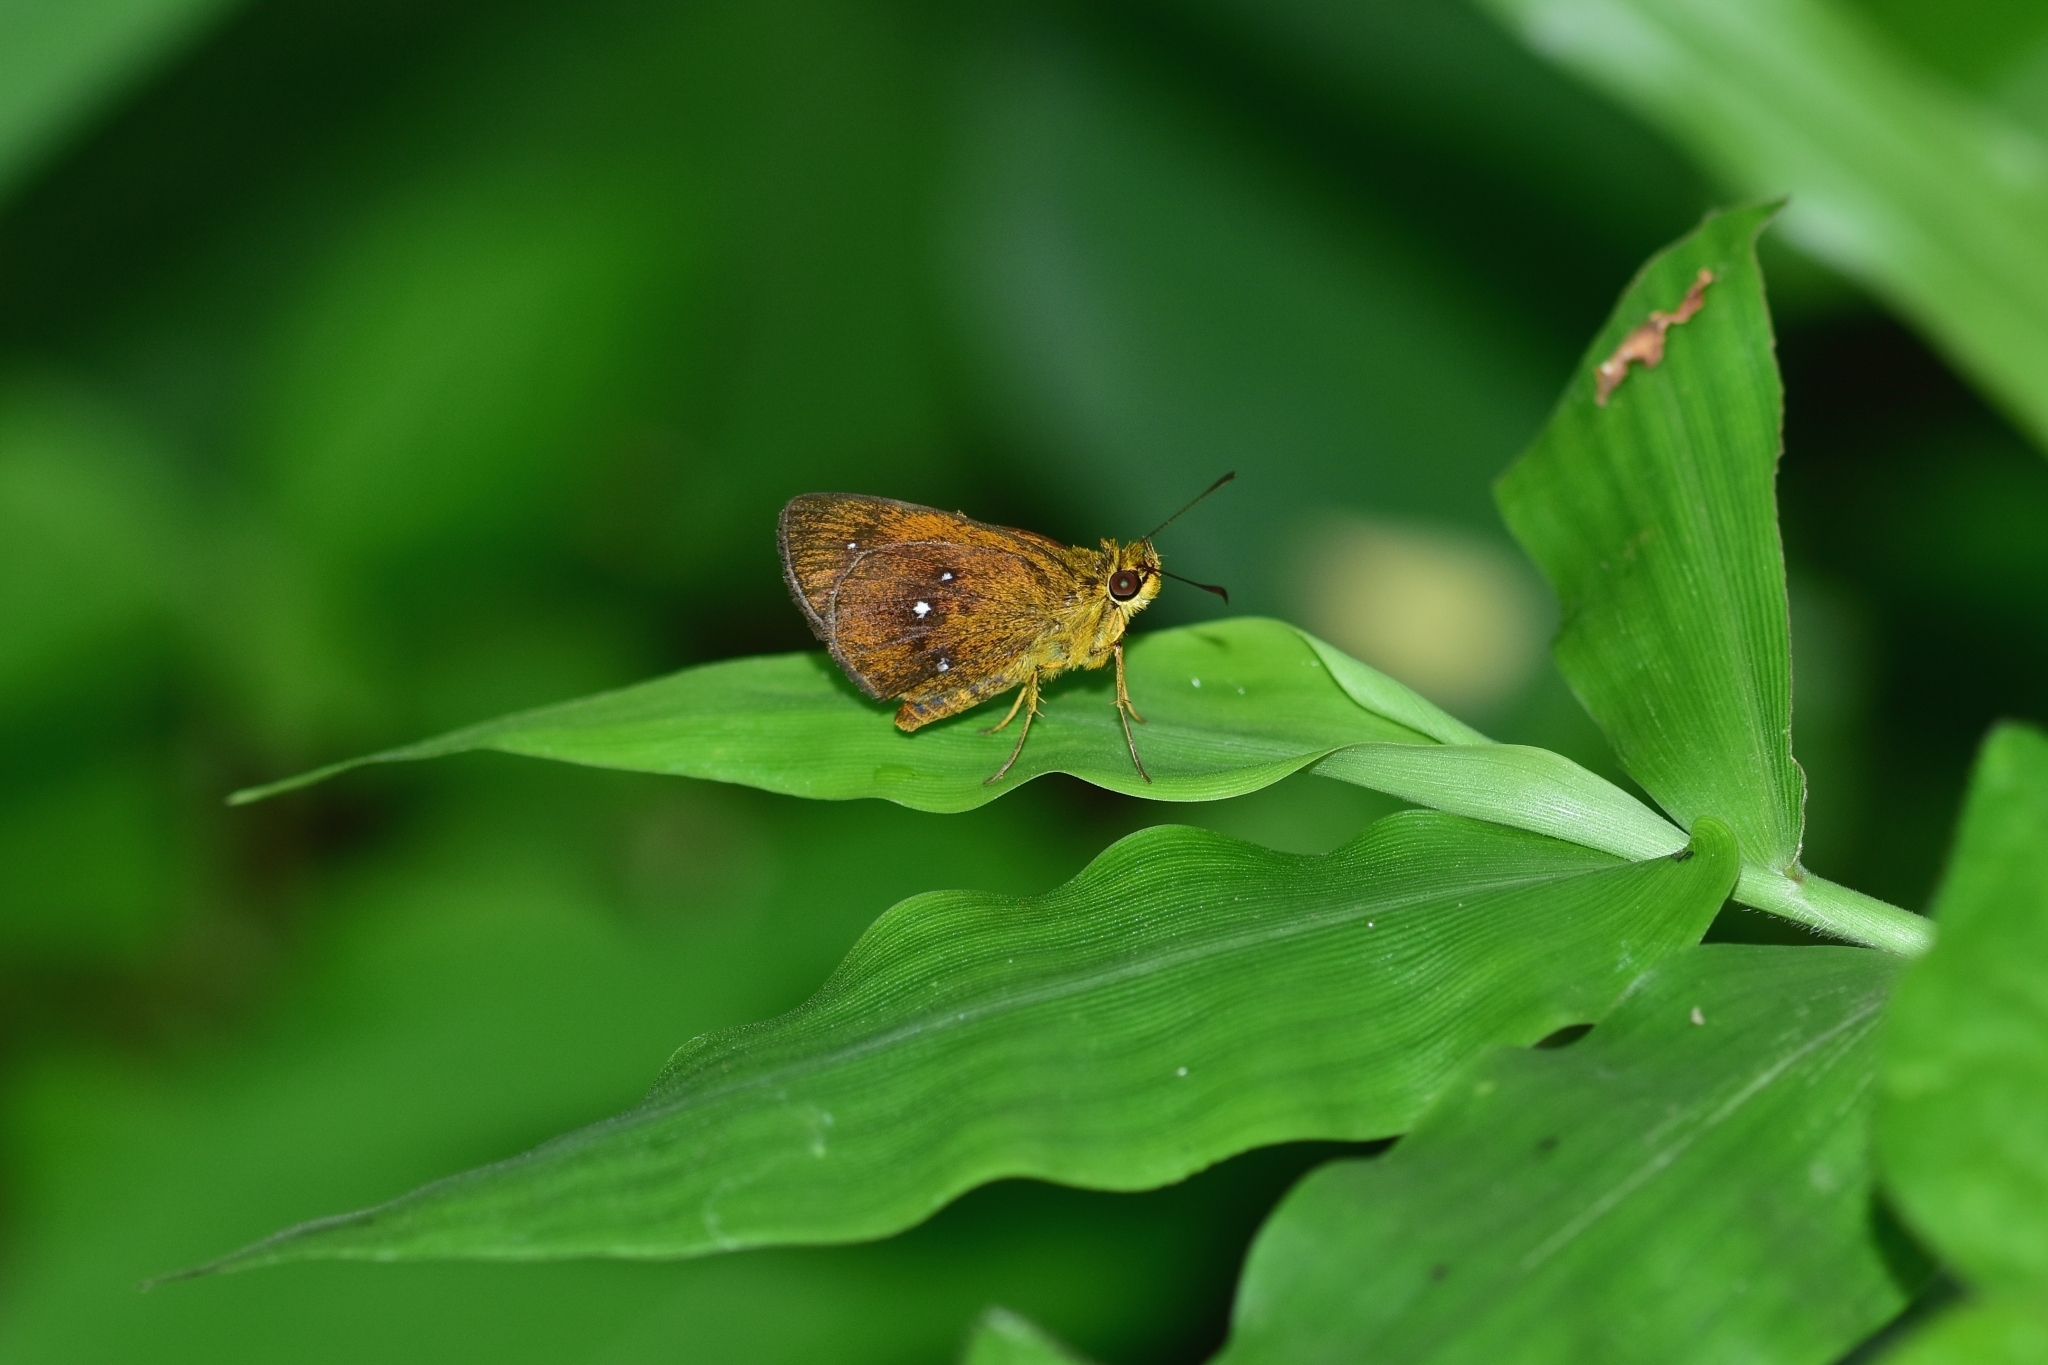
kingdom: Animalia
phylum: Arthropoda
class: Insecta
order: Lepidoptera
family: Hesperiidae
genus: Iambrix
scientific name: Iambrix salsala
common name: Chestnut bob
